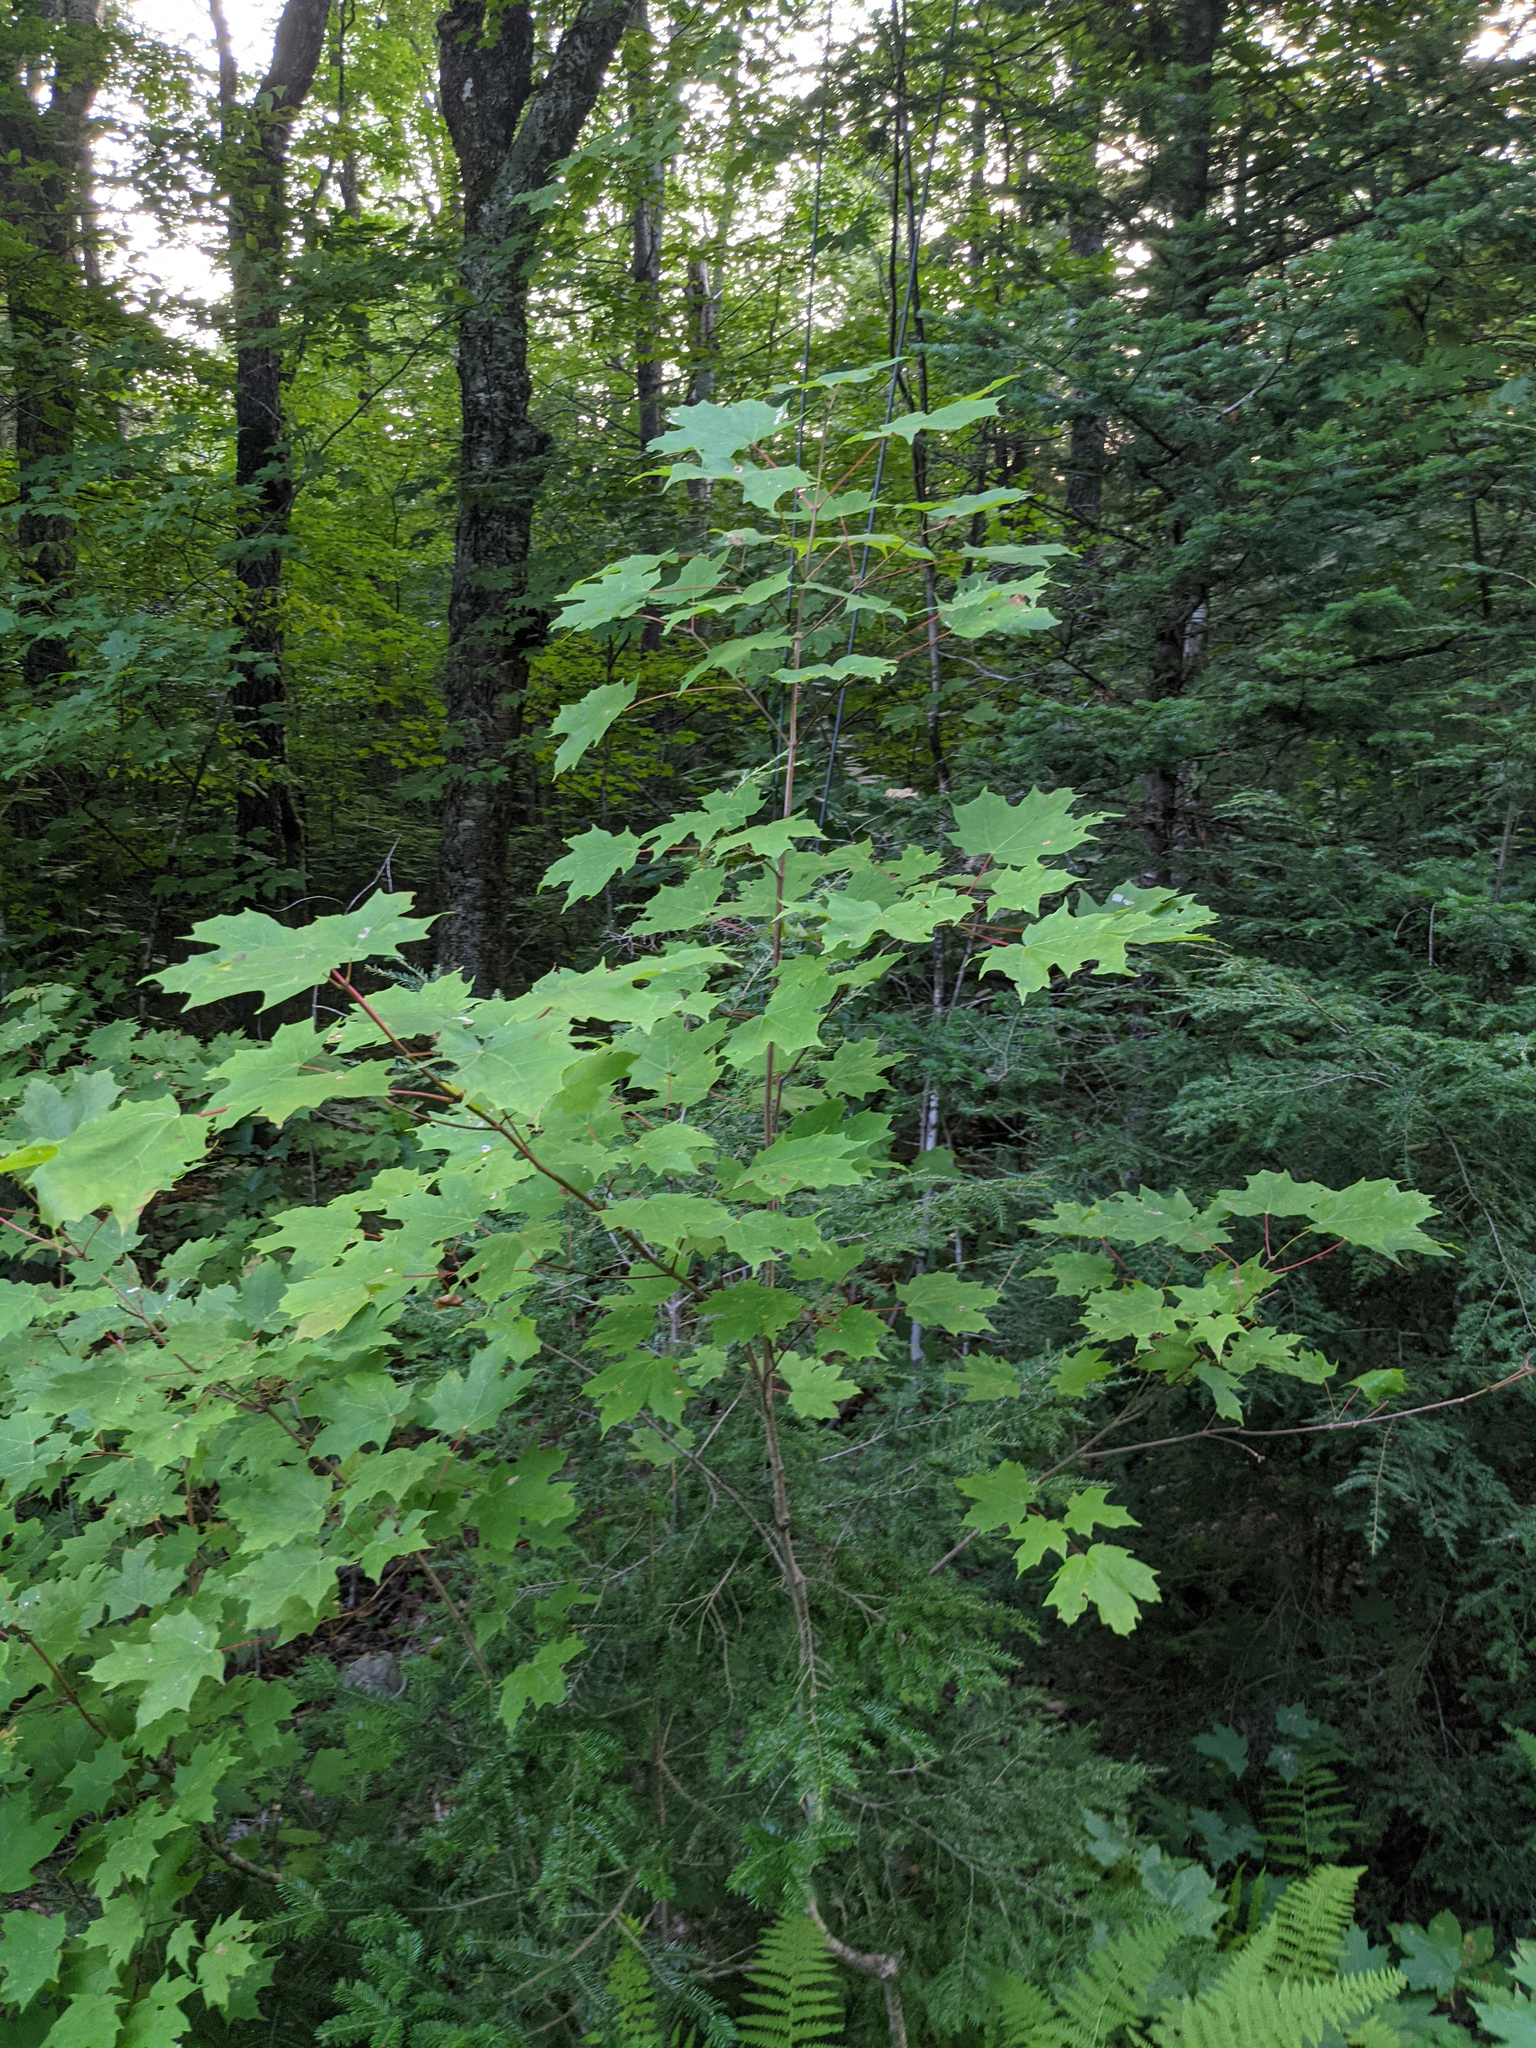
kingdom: Plantae
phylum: Tracheophyta
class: Magnoliopsida
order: Sapindales
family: Sapindaceae
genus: Acer
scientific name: Acer saccharum
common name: Sugar maple
